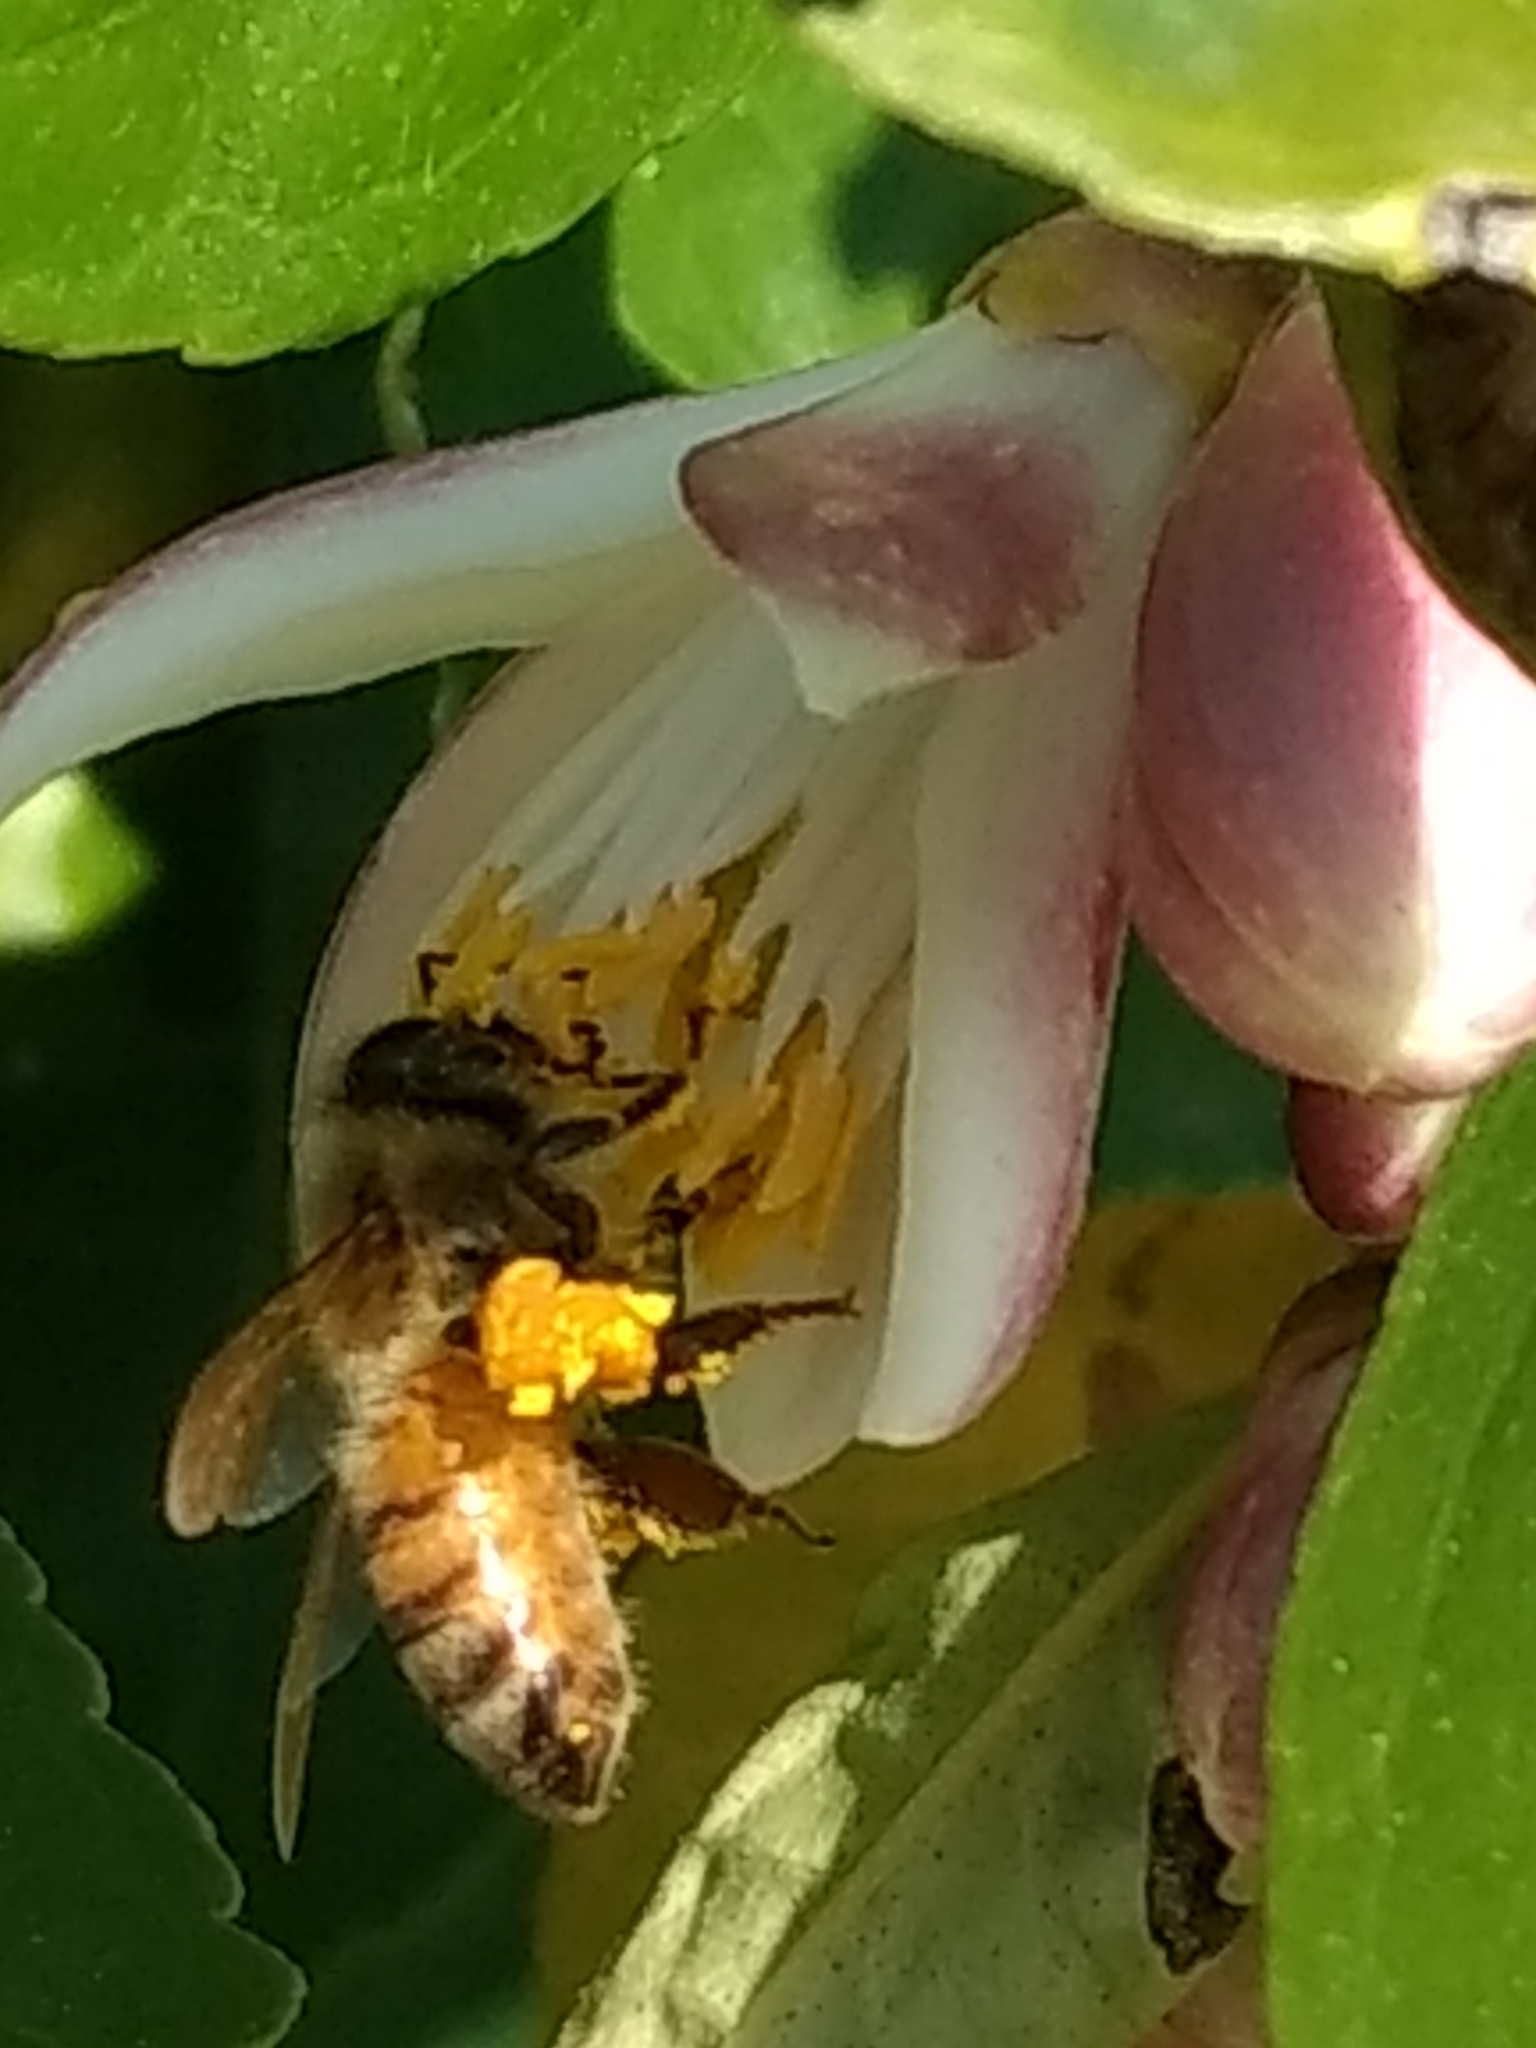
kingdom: Animalia
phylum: Arthropoda
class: Insecta
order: Hymenoptera
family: Apidae
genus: Apis
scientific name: Apis mellifera
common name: Honey bee
